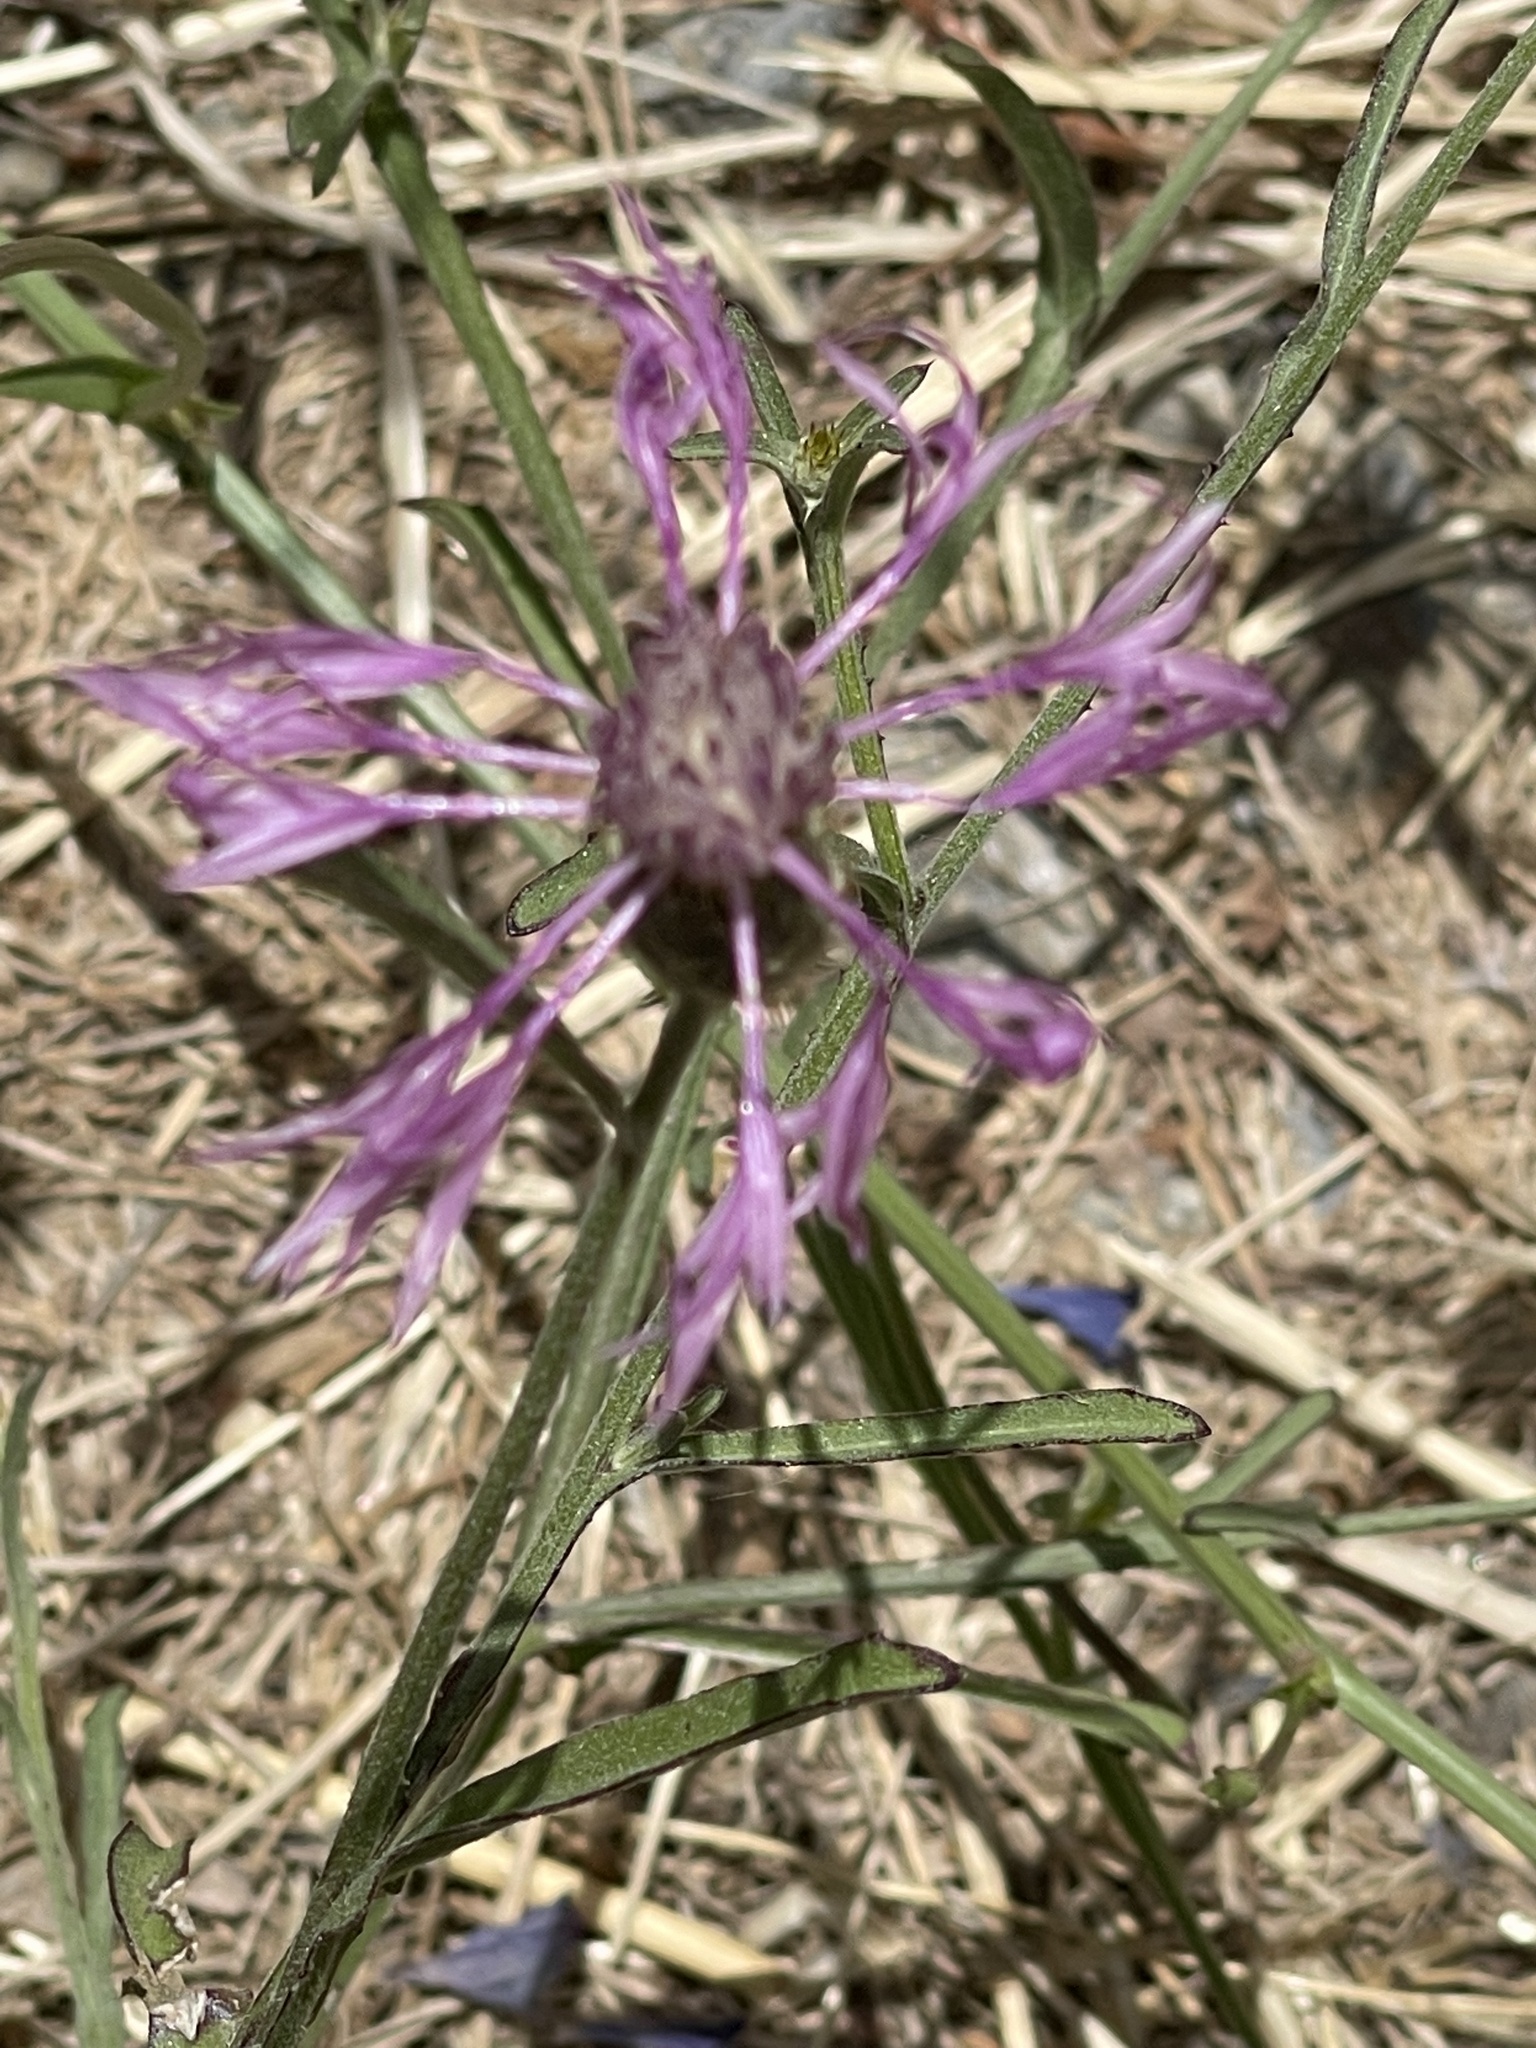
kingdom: Plantae
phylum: Tracheophyta
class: Magnoliopsida
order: Asterales
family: Asteraceae
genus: Centaurea
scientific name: Centaurea napifolia
